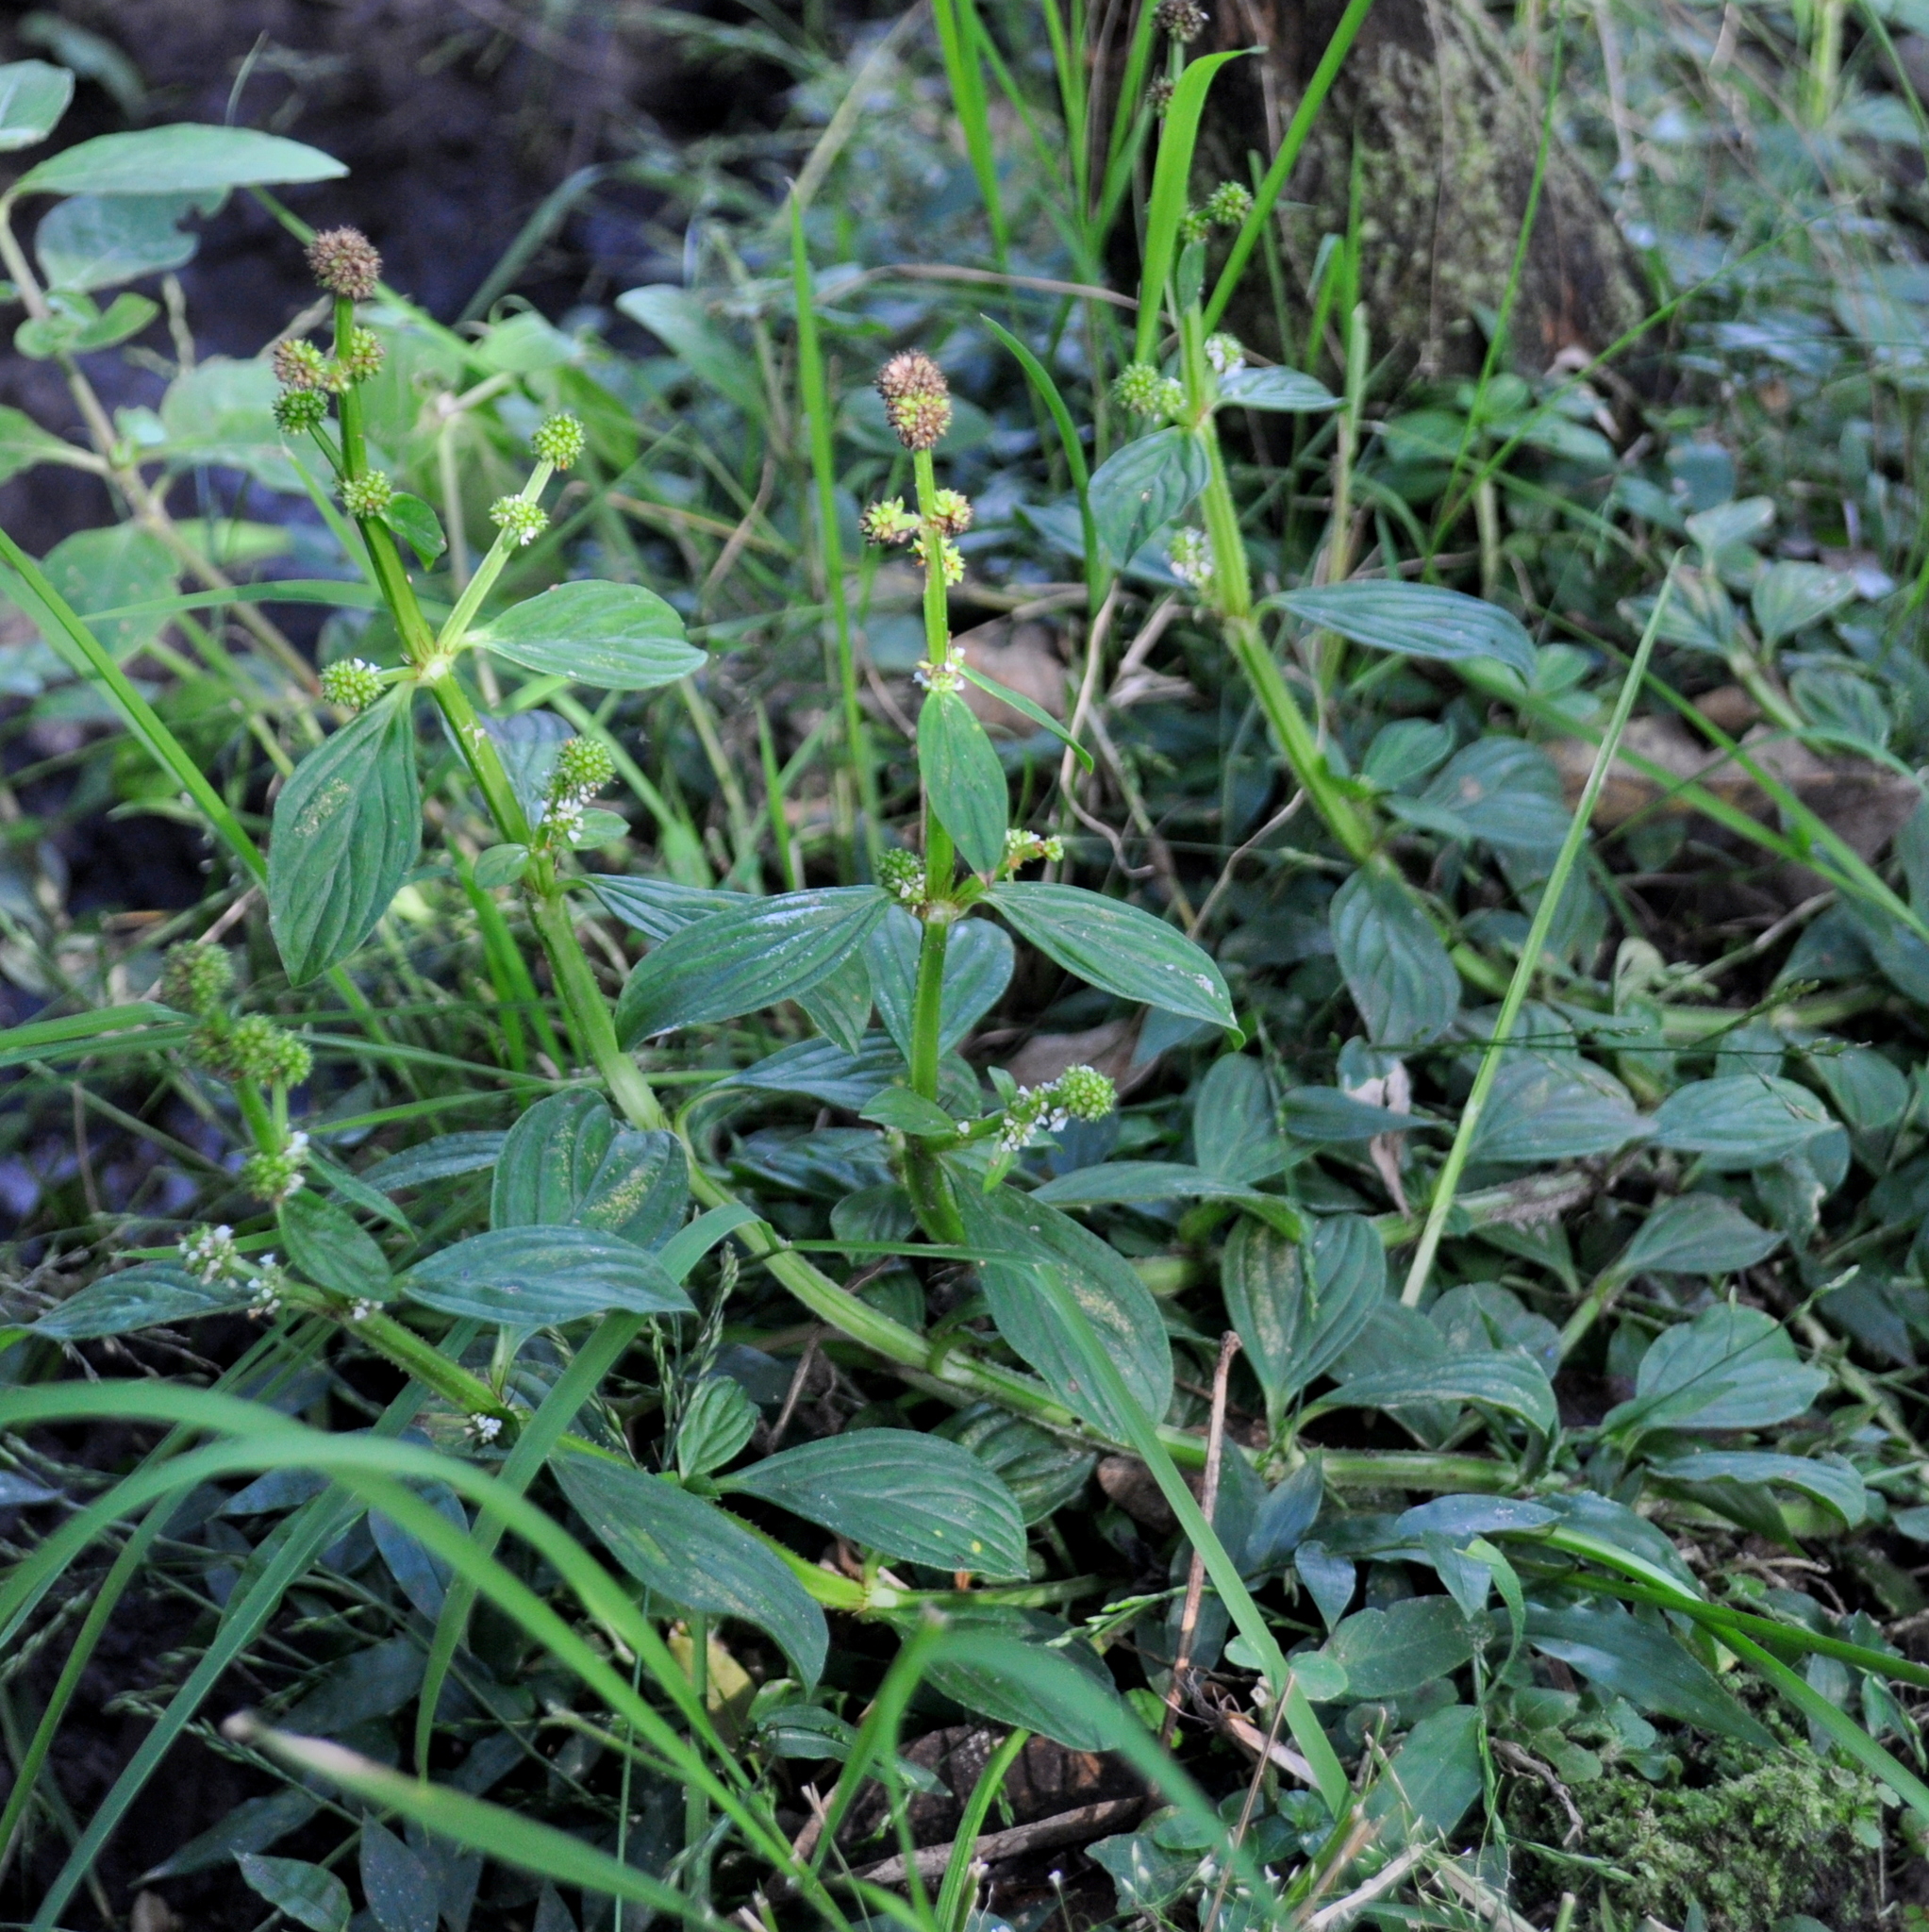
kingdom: Plantae
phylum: Tracheophyta
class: Magnoliopsida
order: Gentianales
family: Rubiaceae
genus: Galianthe
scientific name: Galianthe palustris
